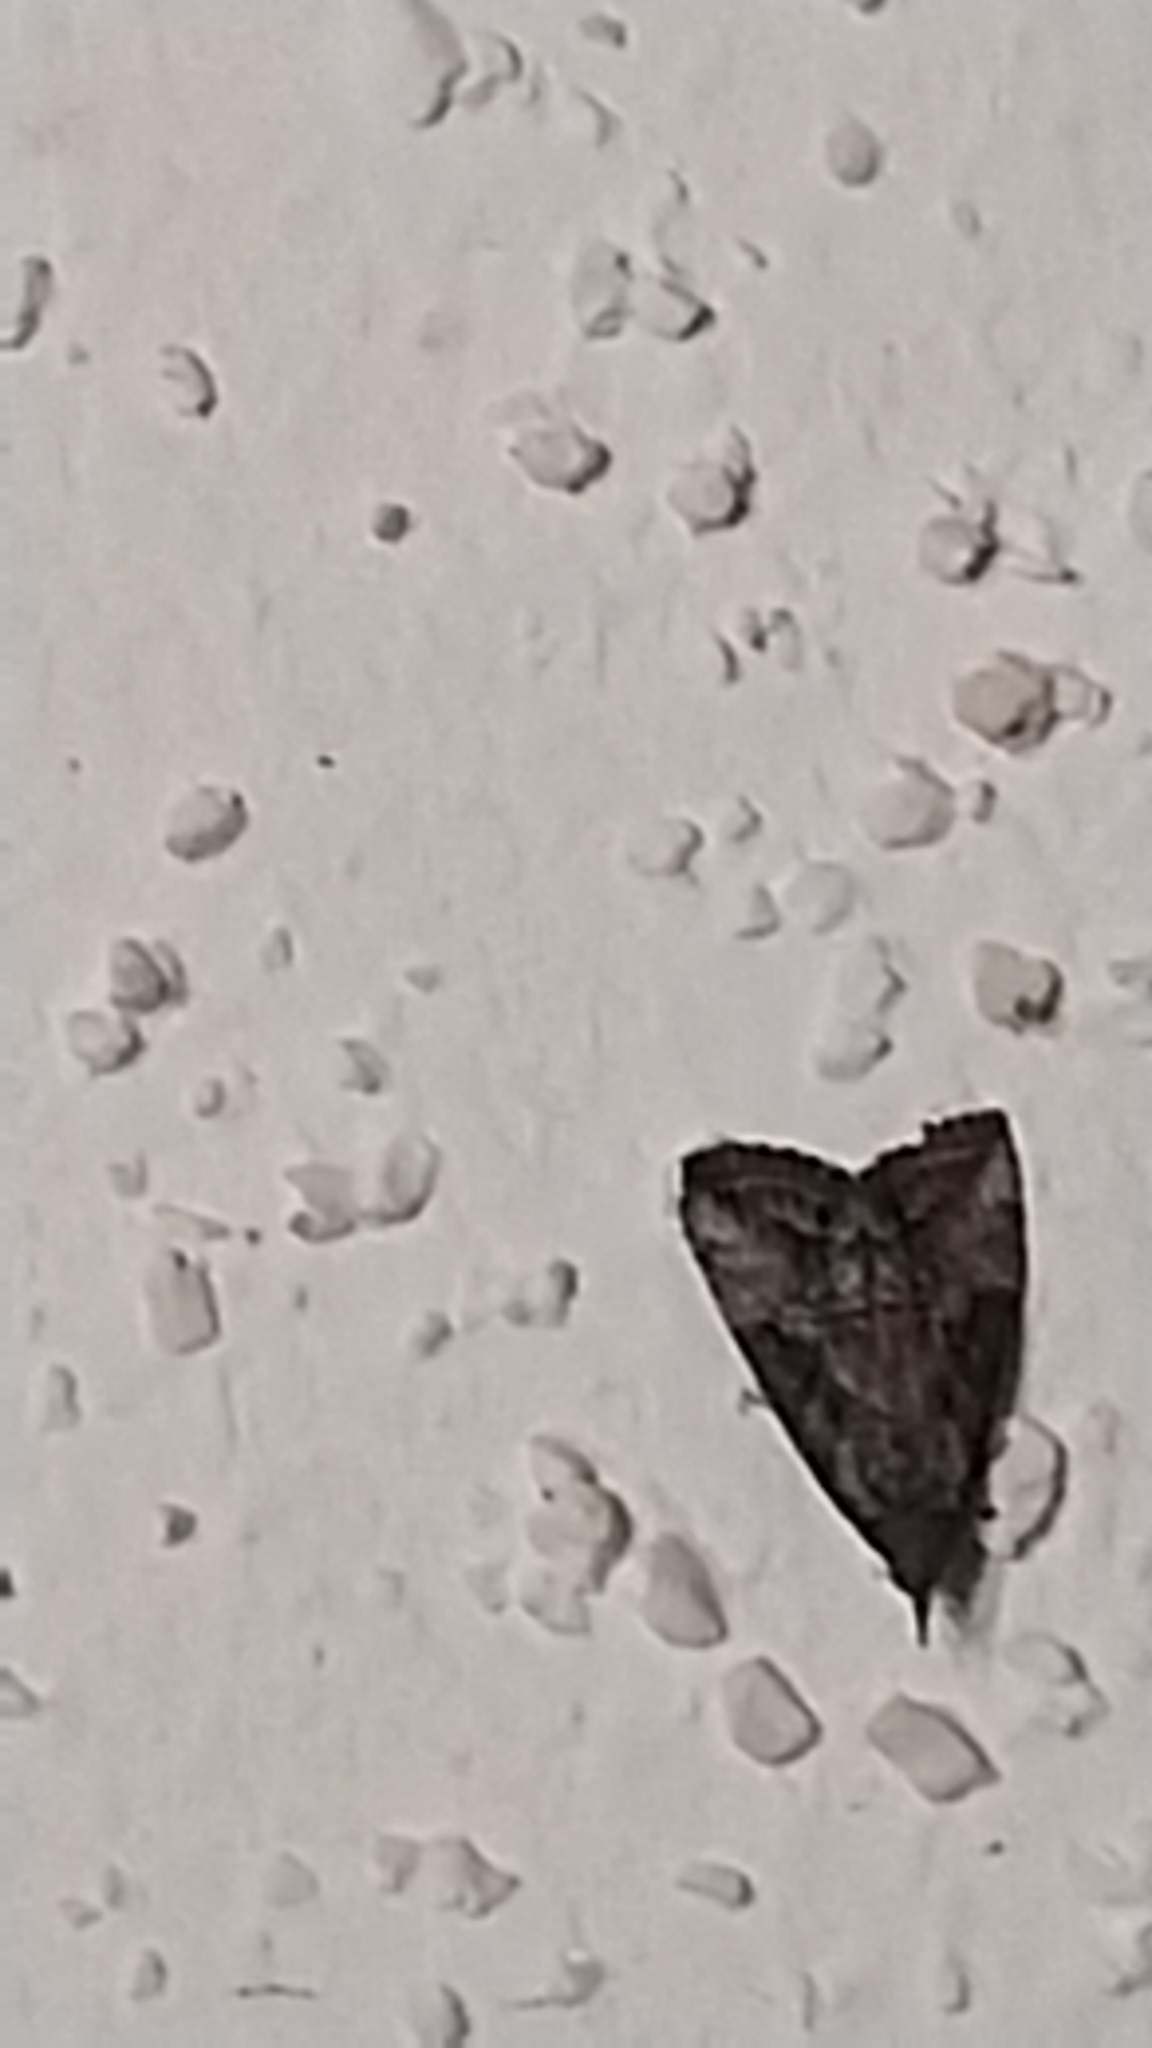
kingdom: Animalia
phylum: Arthropoda
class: Insecta
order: Lepidoptera
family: Erebidae
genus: Hypena
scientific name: Hypena scabra
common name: Green cloverworm
